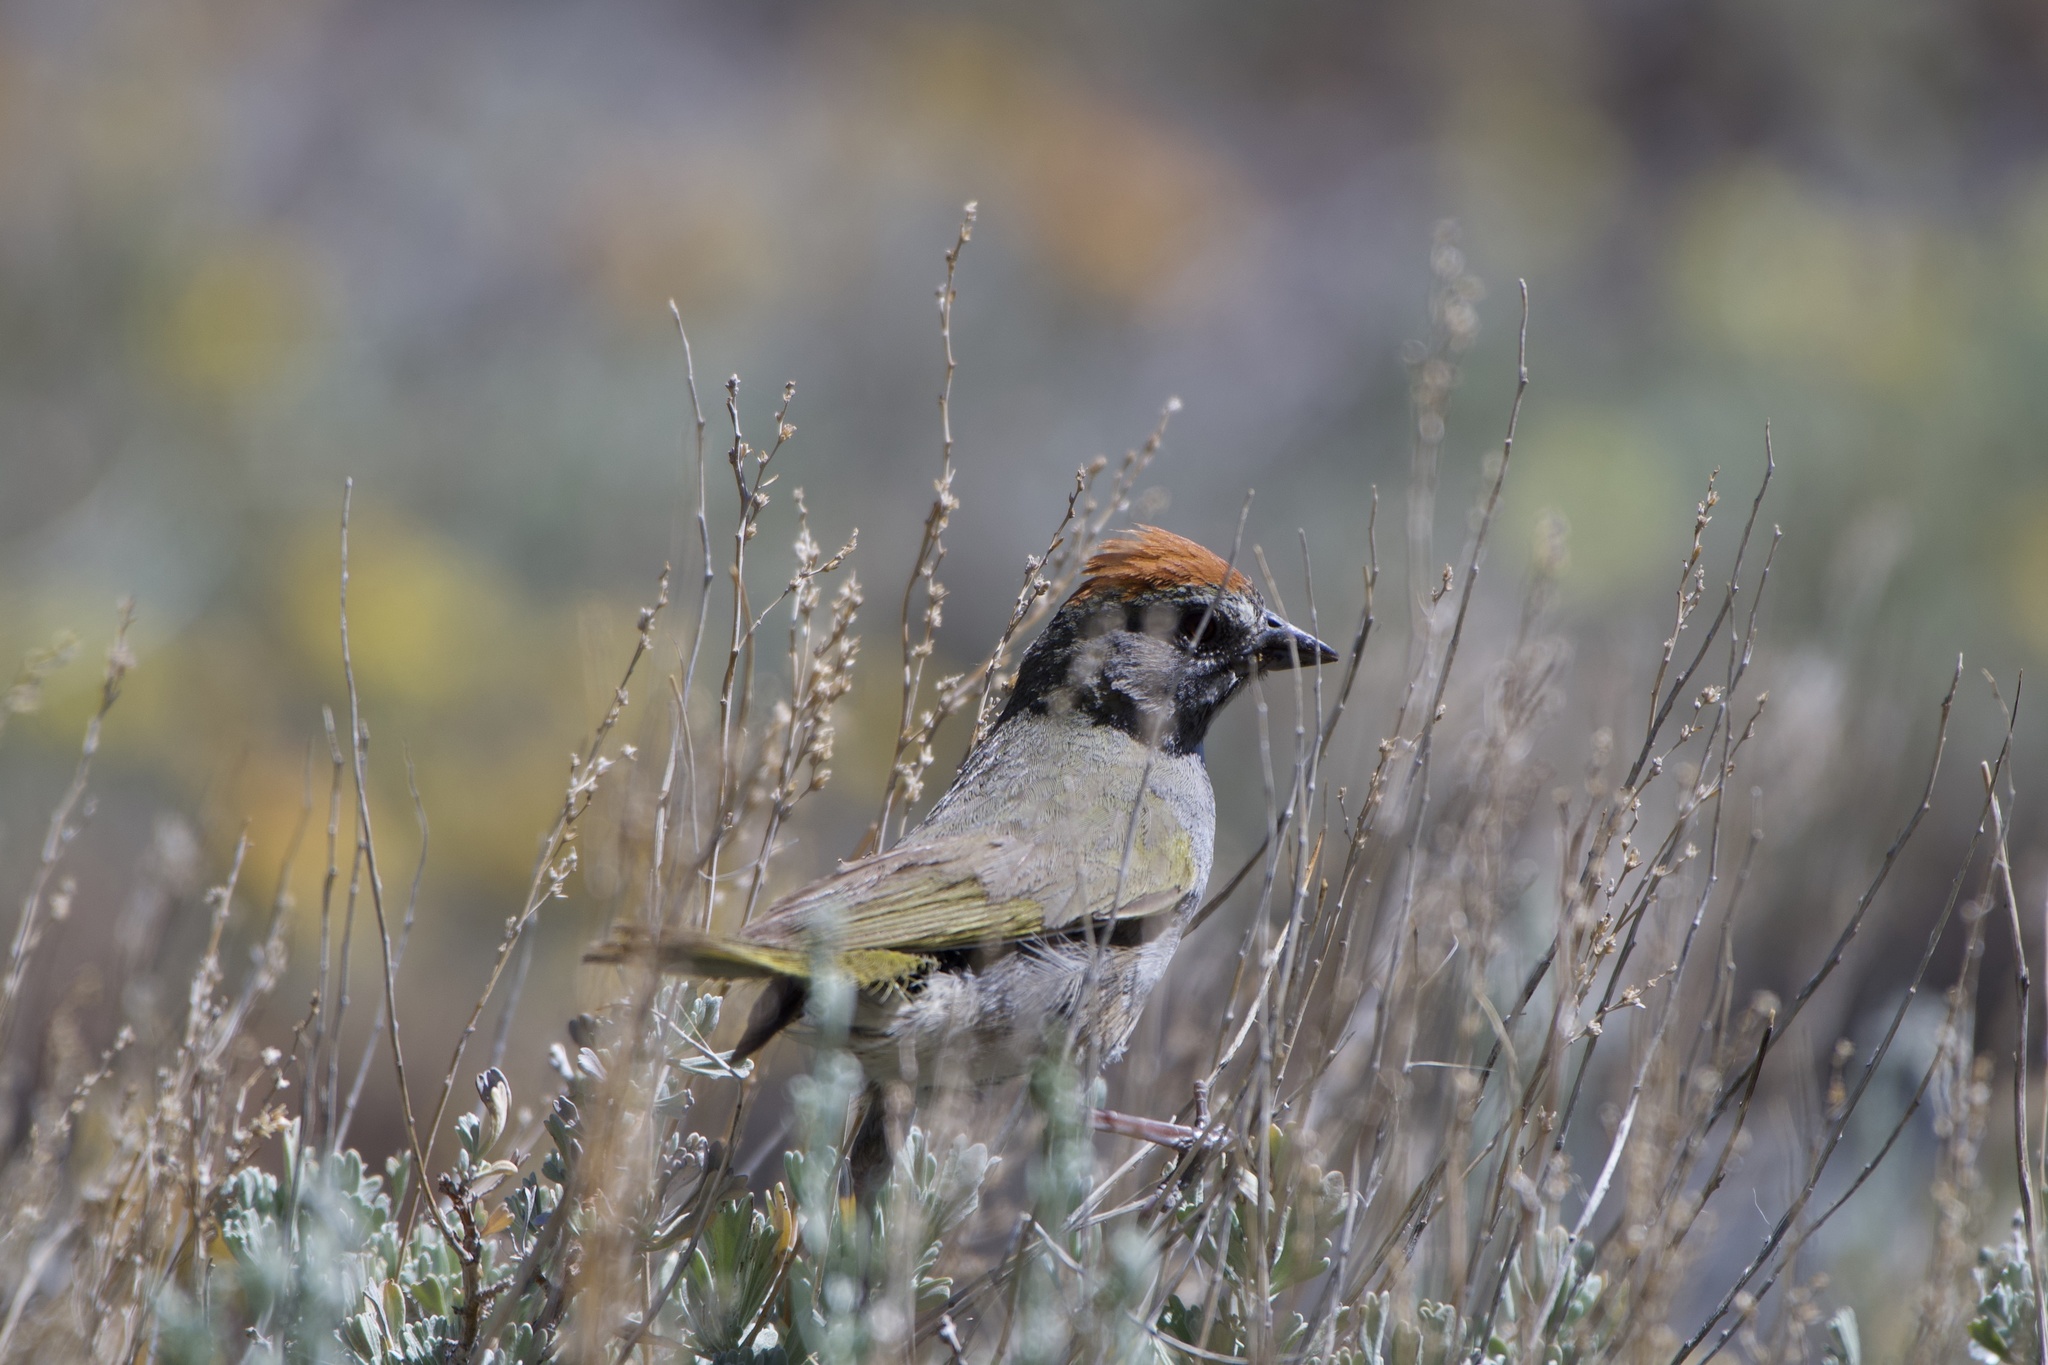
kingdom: Animalia
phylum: Chordata
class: Aves
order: Passeriformes
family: Passerellidae
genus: Pipilo
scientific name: Pipilo chlorurus
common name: Green-tailed towhee
